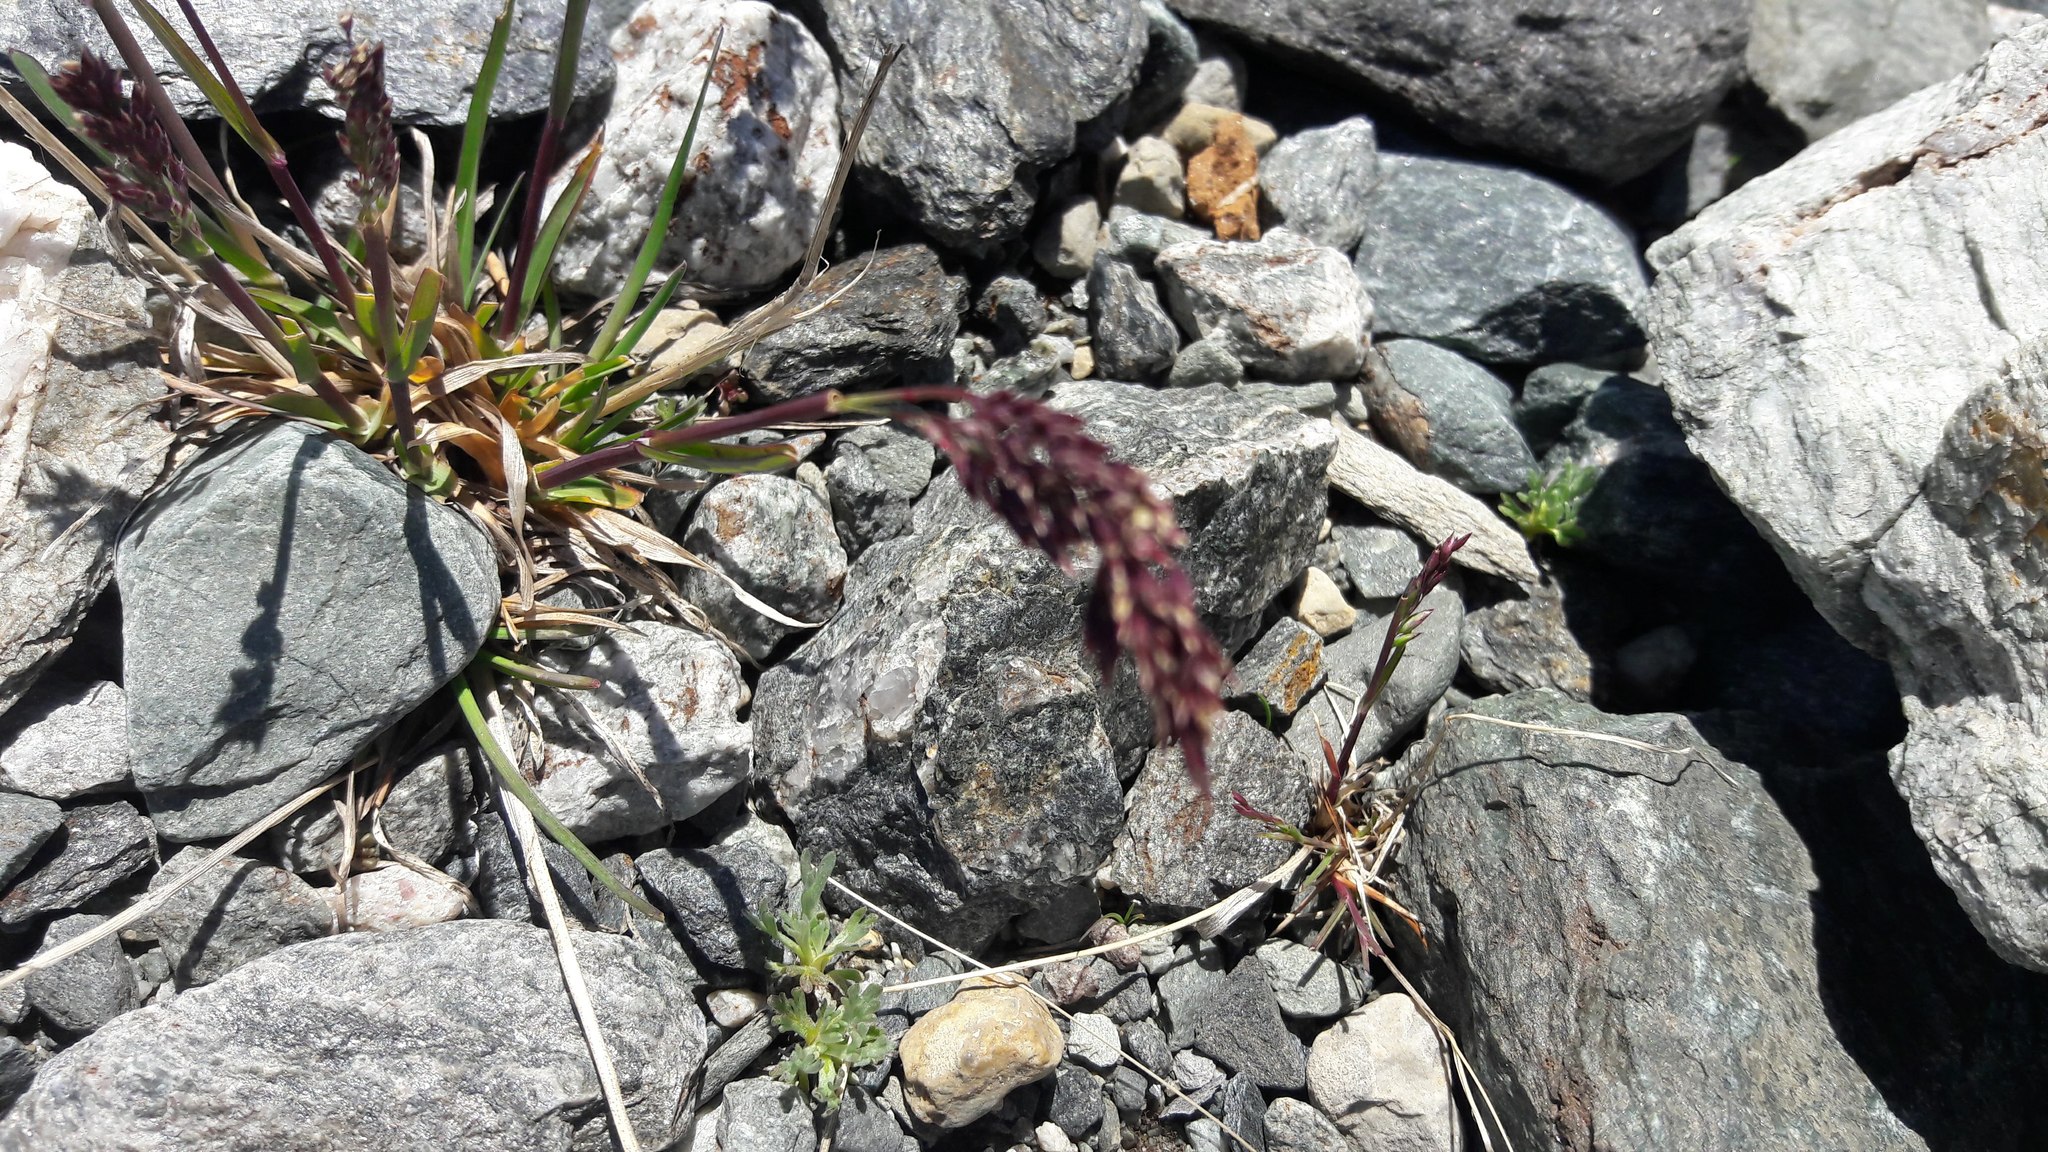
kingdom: Plantae
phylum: Tracheophyta
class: Liliopsida
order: Poales
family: Poaceae
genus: Poa
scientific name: Poa alpina
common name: Alpine bluegrass
